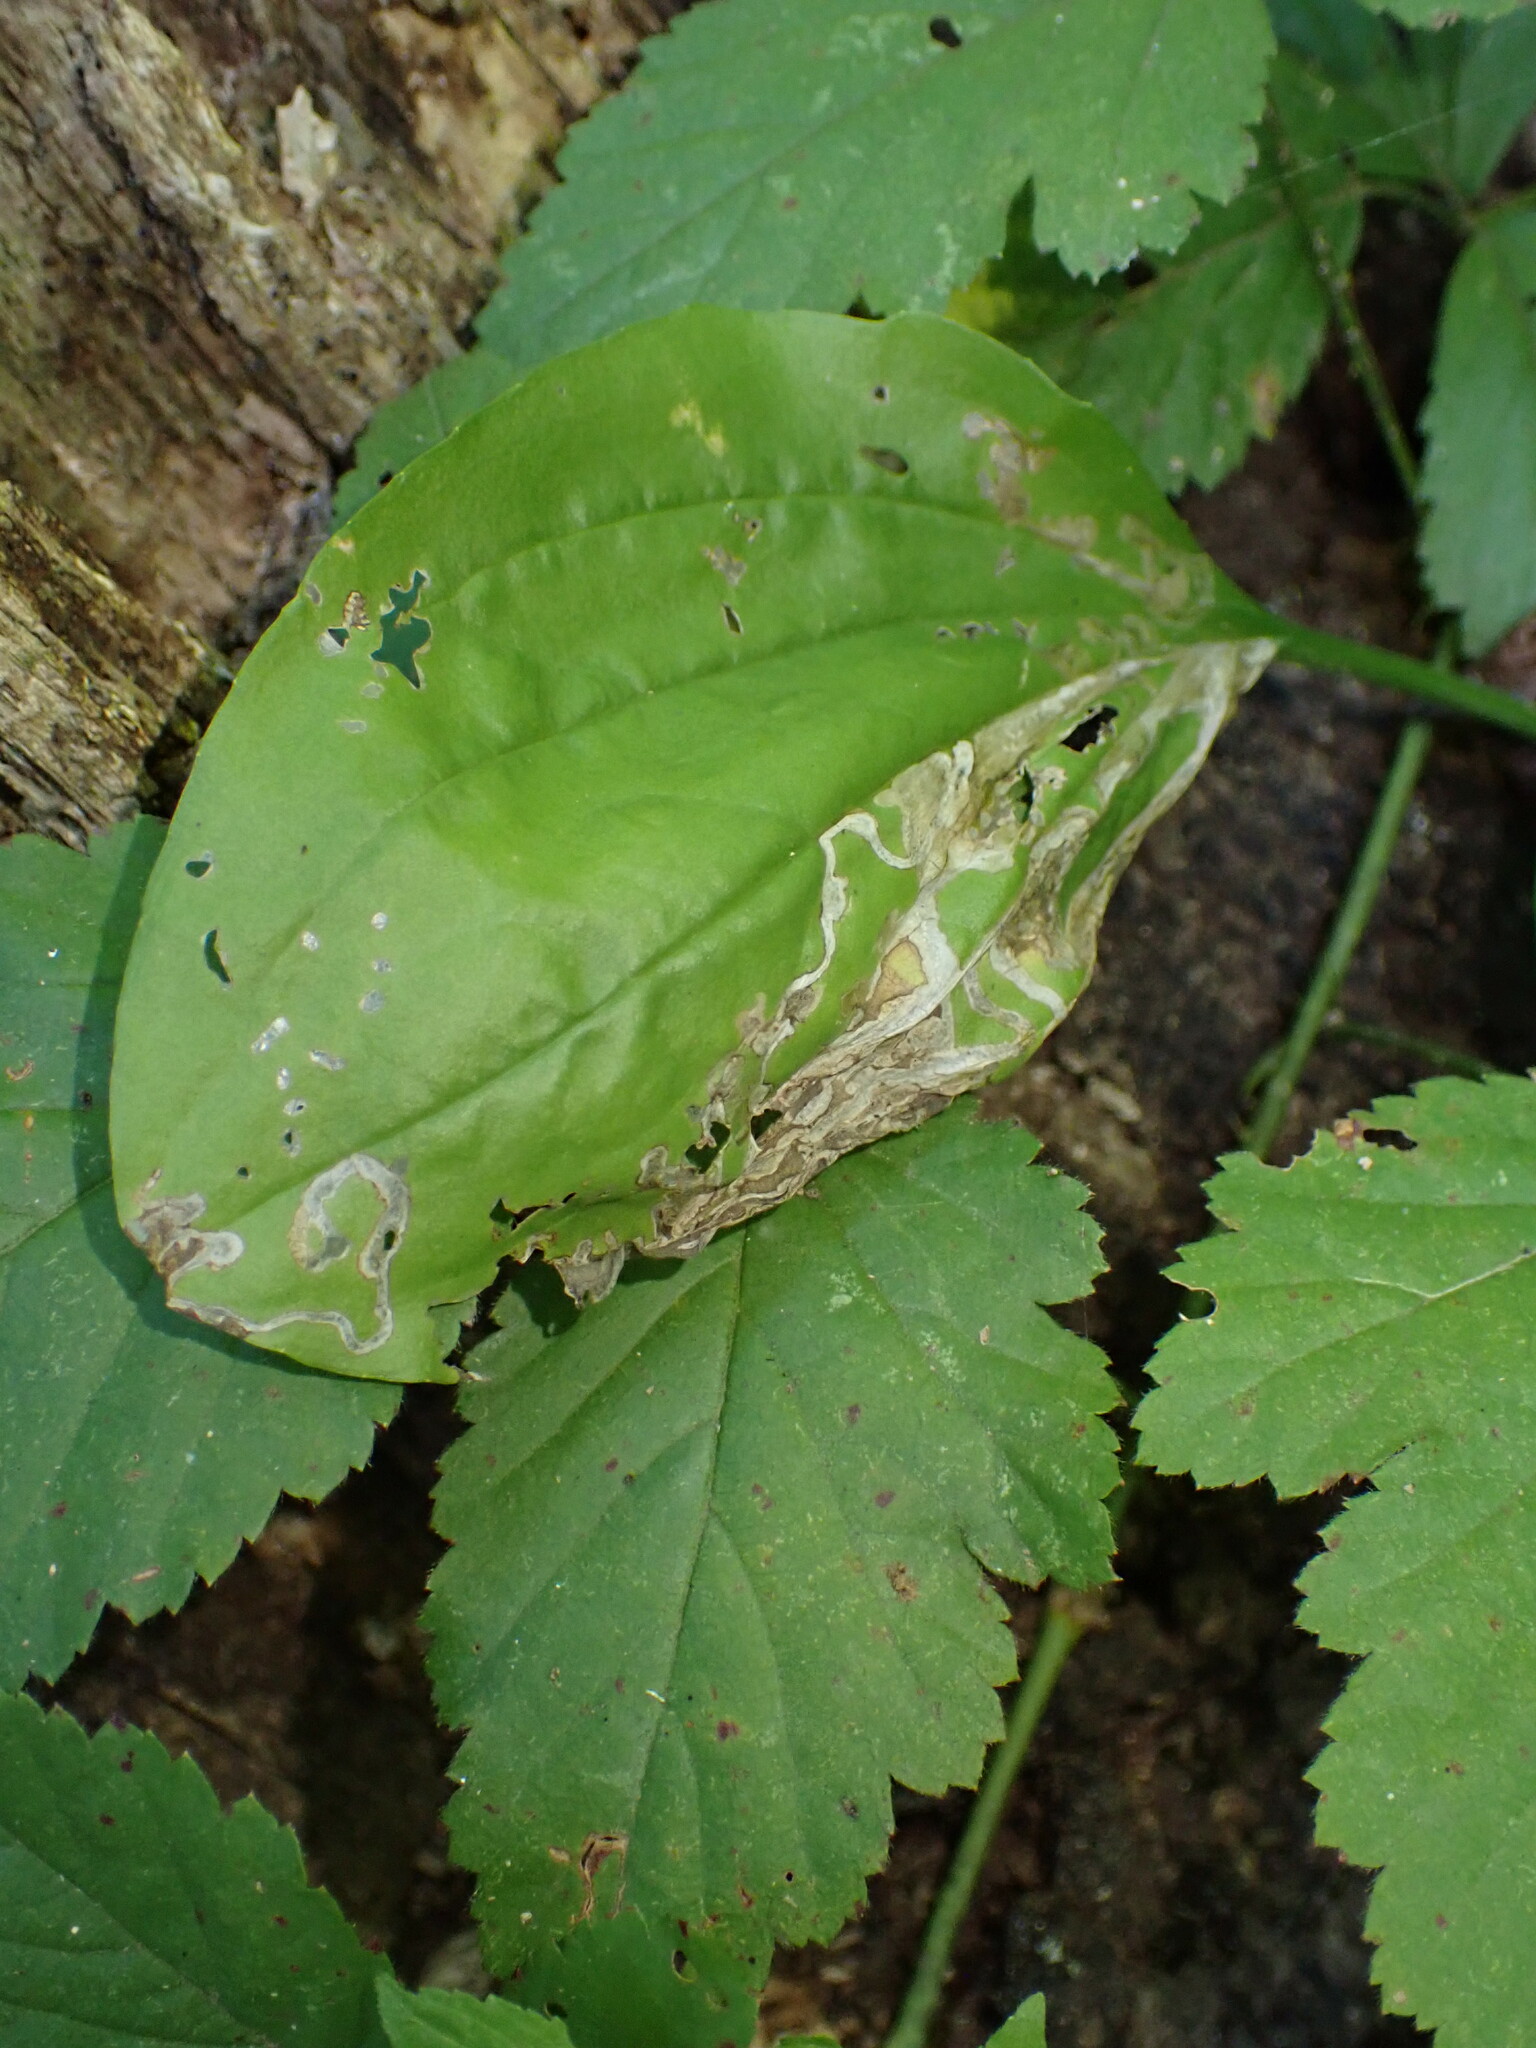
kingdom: Animalia
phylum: Arthropoda
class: Insecta
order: Coleoptera
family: Chrysomelidae
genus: Dibolia
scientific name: Dibolia borealis
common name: Northern plantain flea beetle
